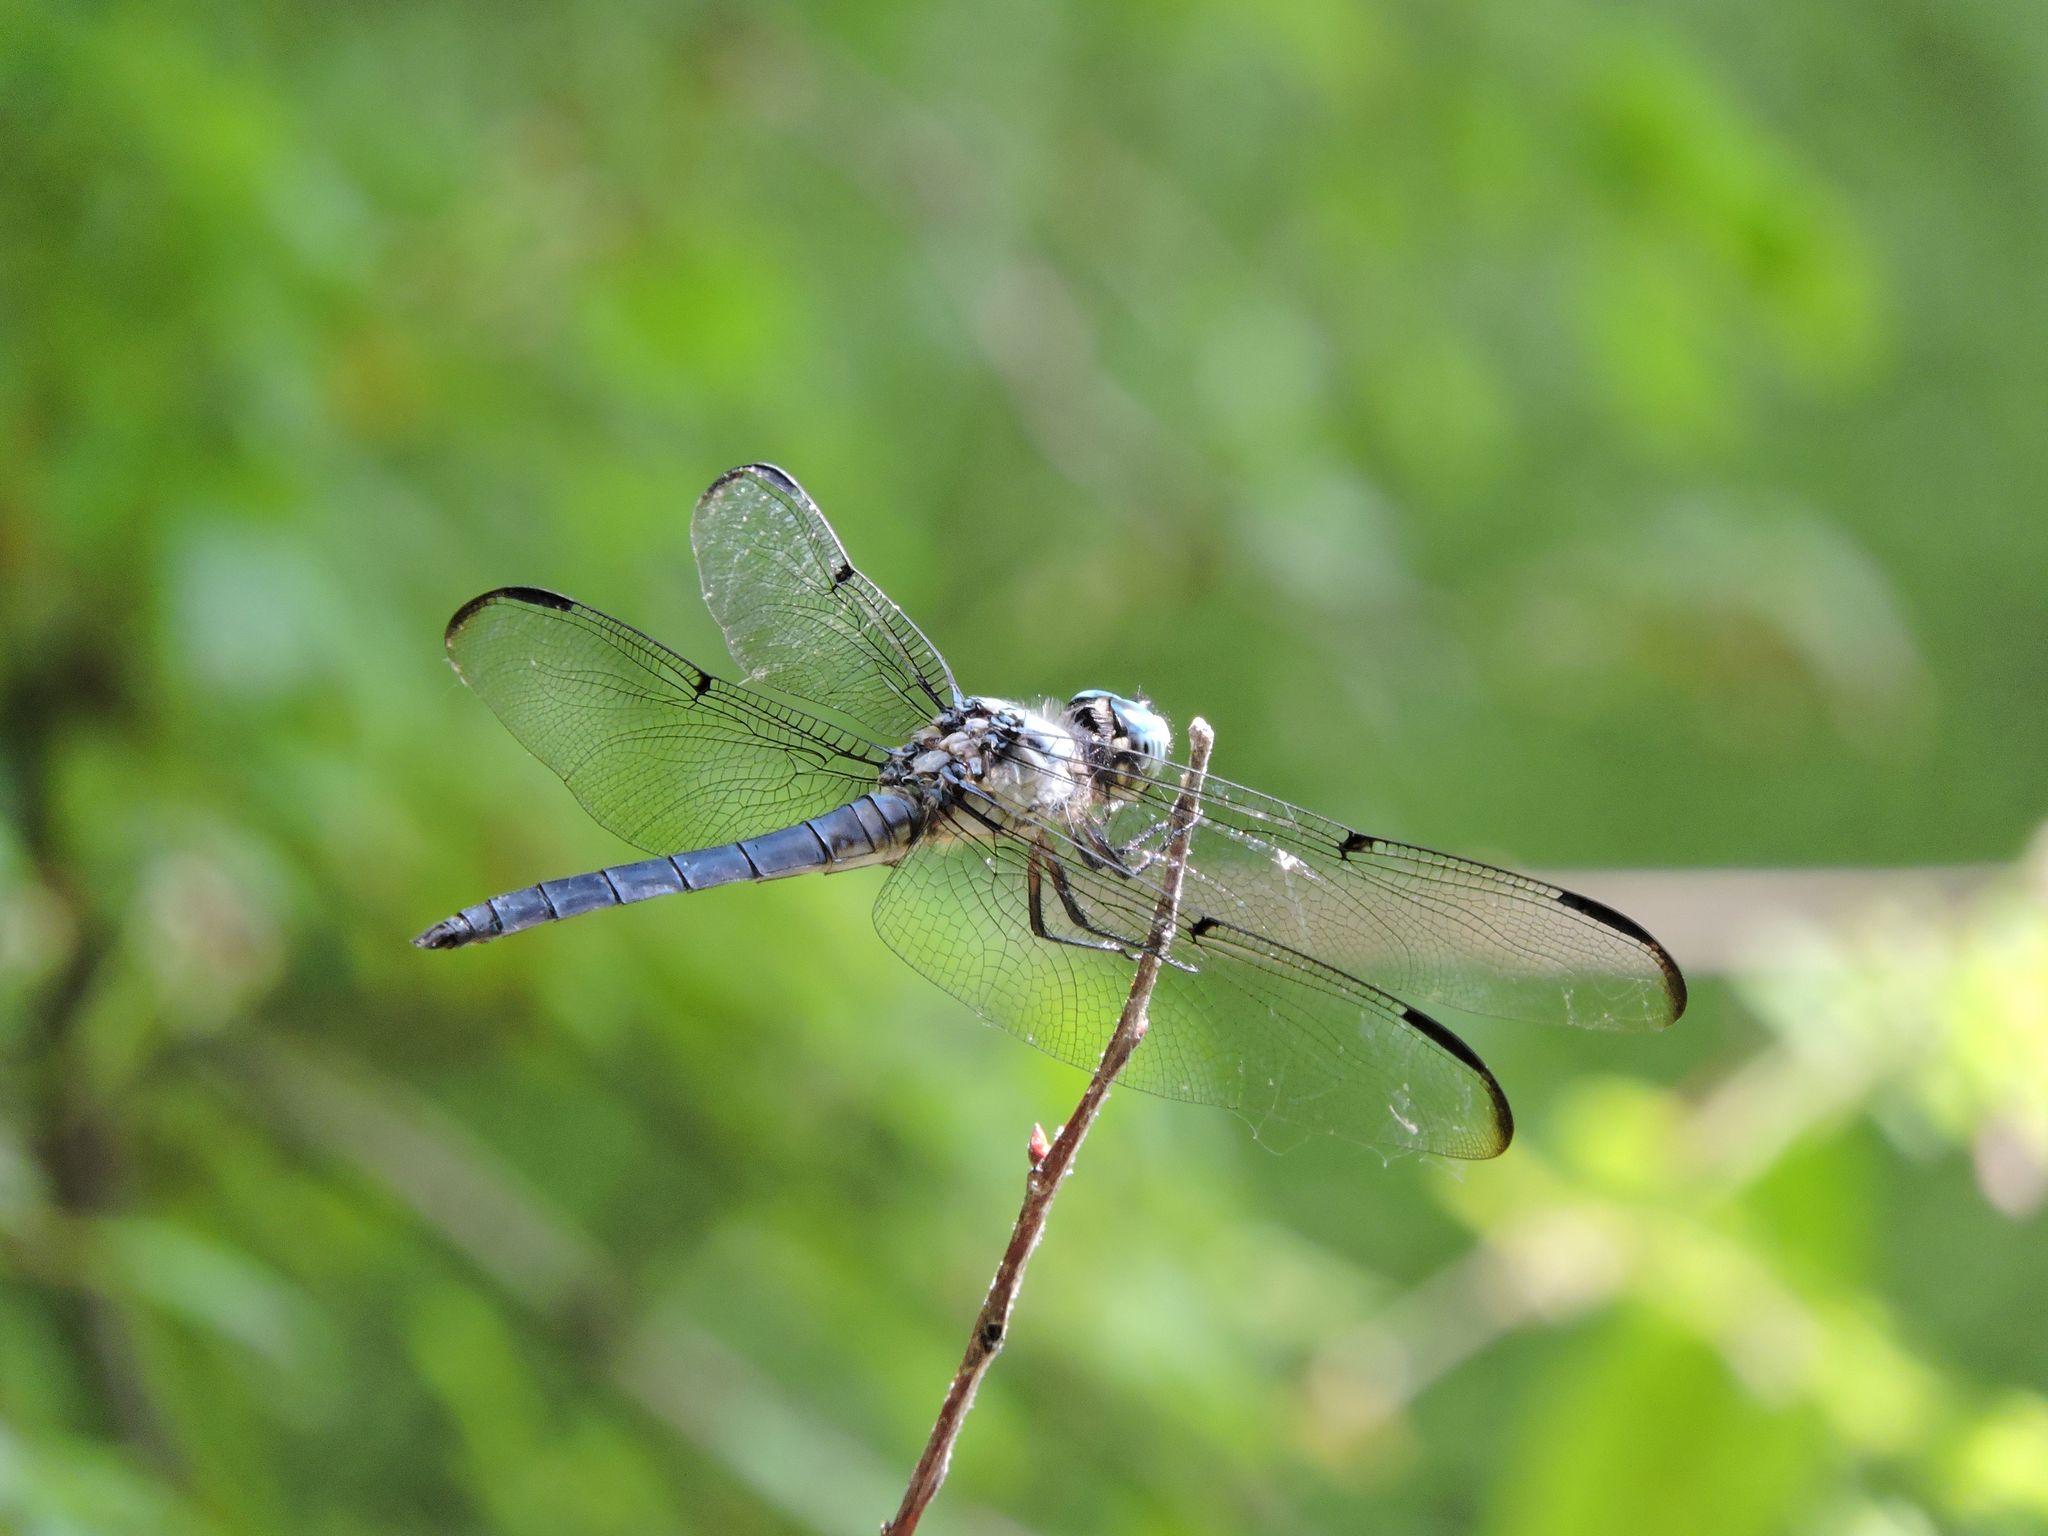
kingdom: Animalia
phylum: Arthropoda
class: Insecta
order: Odonata
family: Libellulidae
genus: Libellula
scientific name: Libellula vibrans
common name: Great blue skimmer
